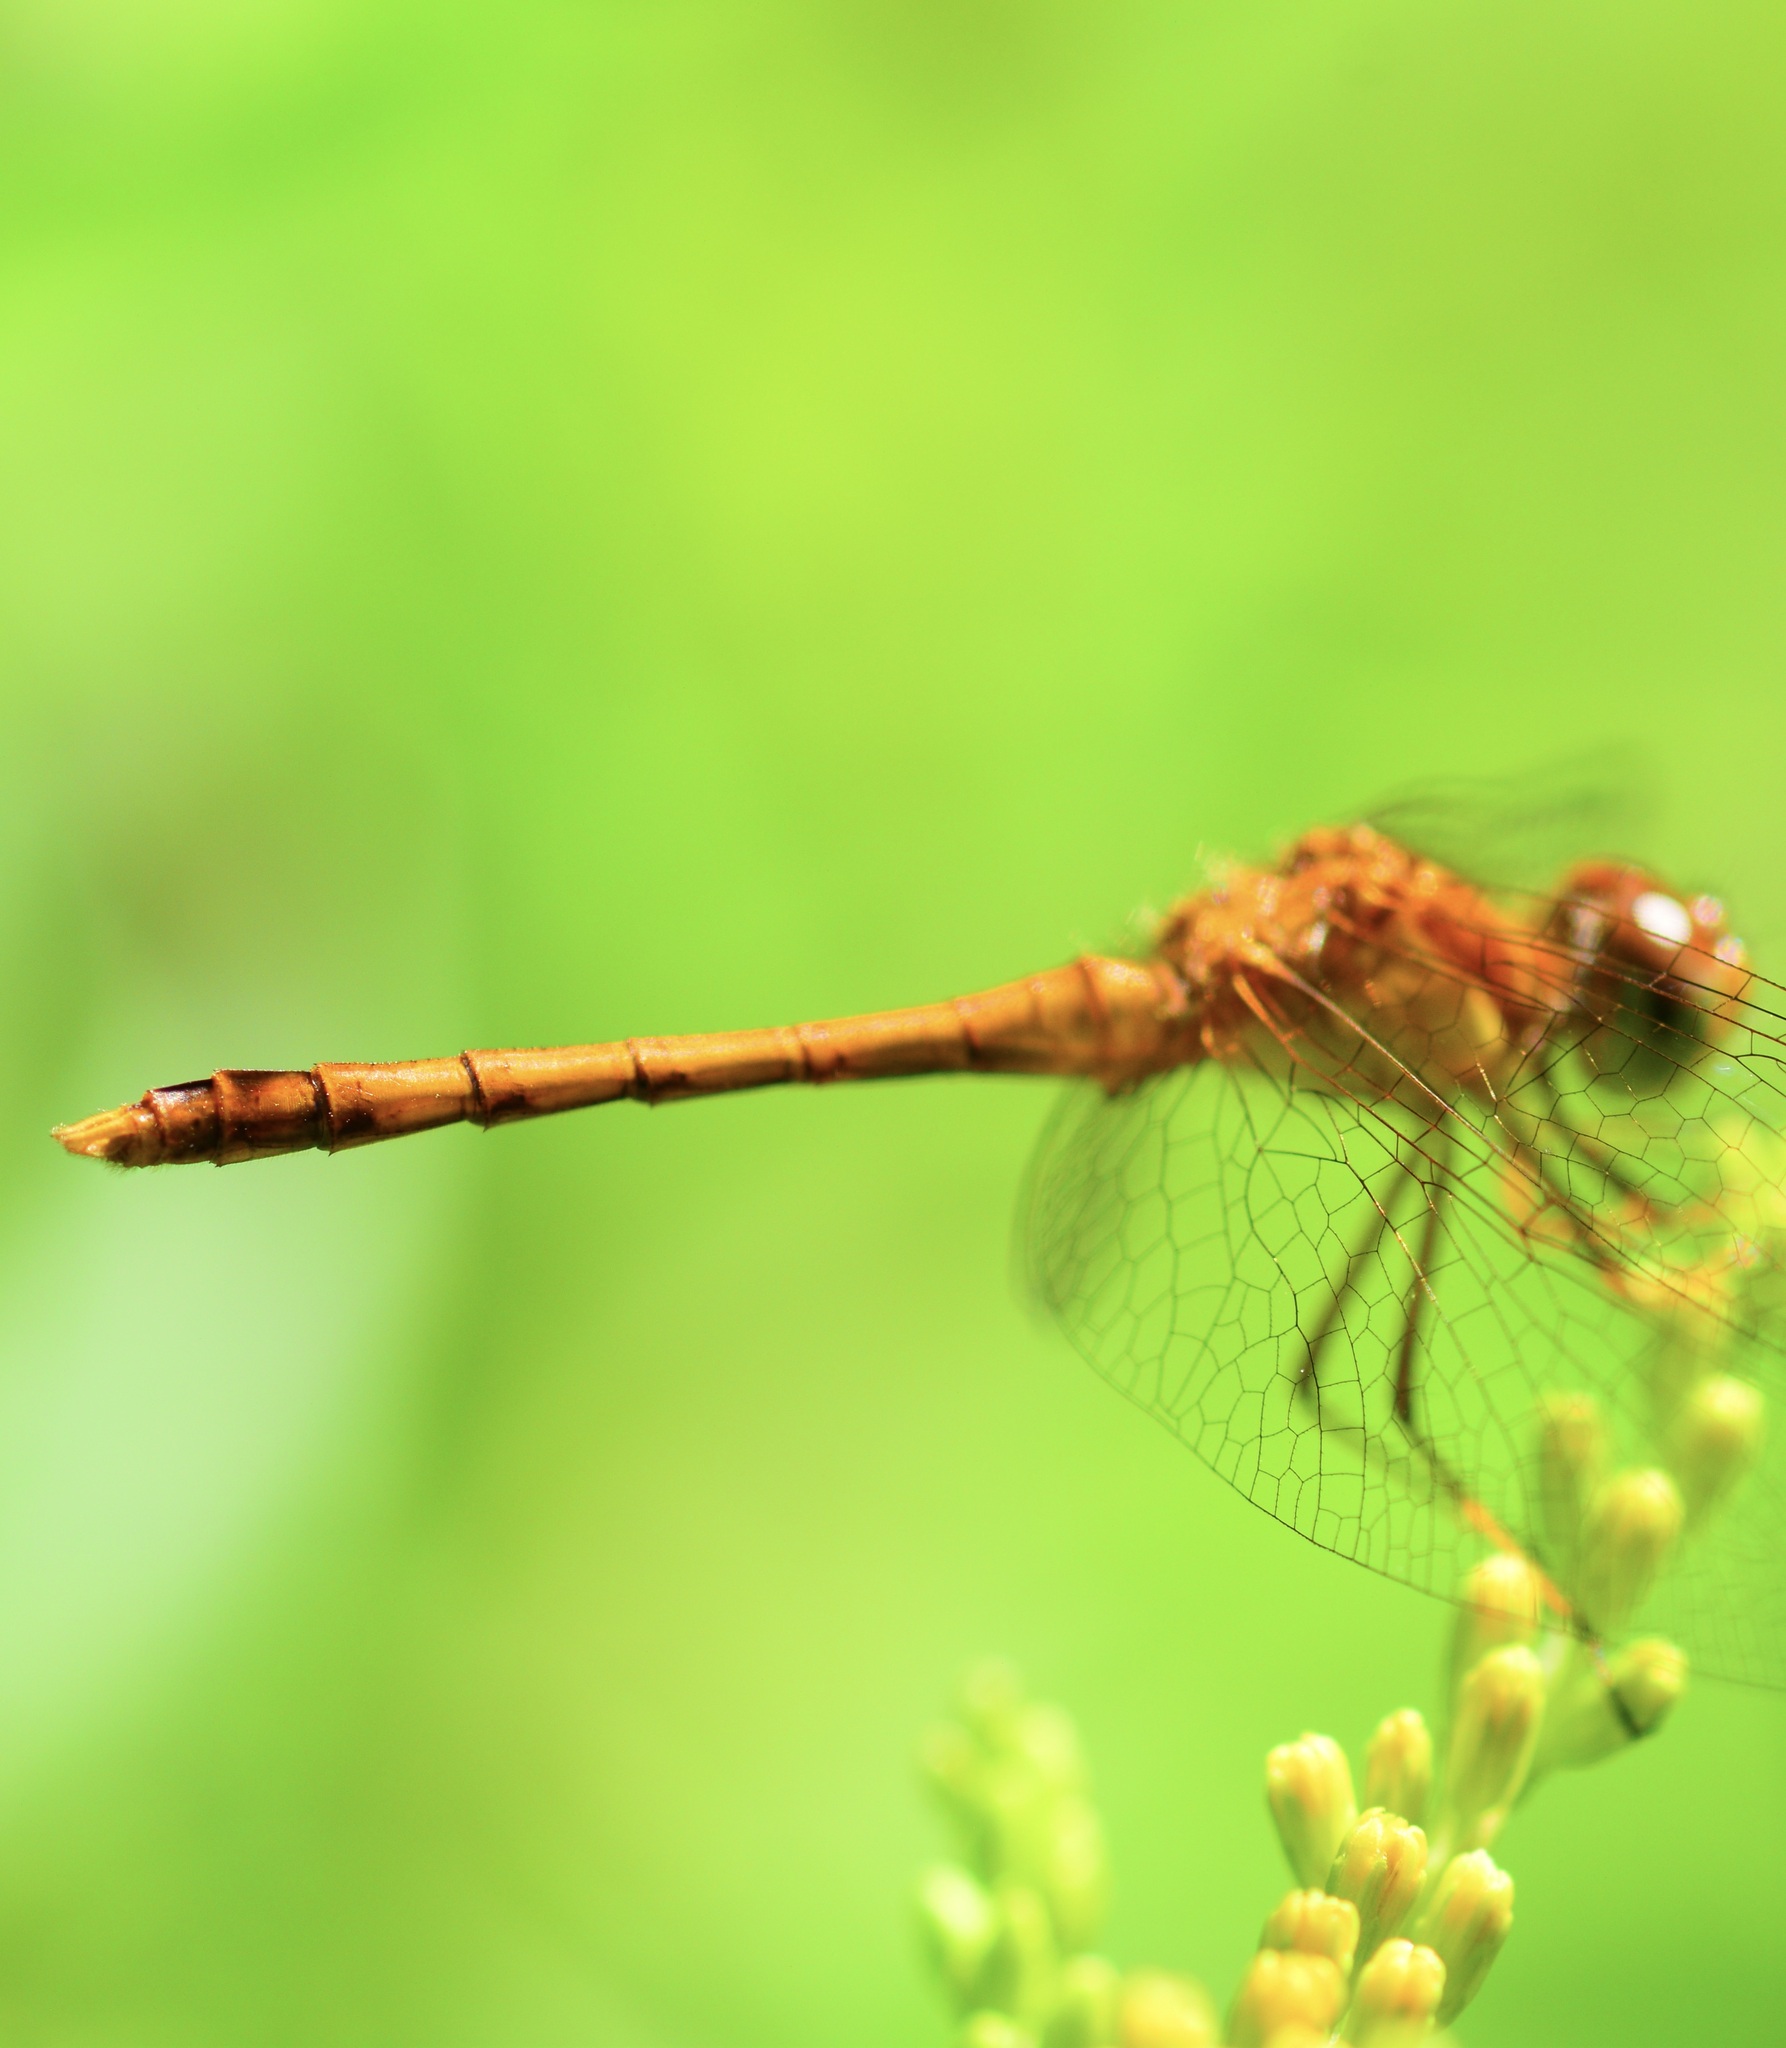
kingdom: Animalia
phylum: Arthropoda
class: Insecta
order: Odonata
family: Libellulidae
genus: Sympetrum
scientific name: Sympetrum vicinum
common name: Autumn meadowhawk
